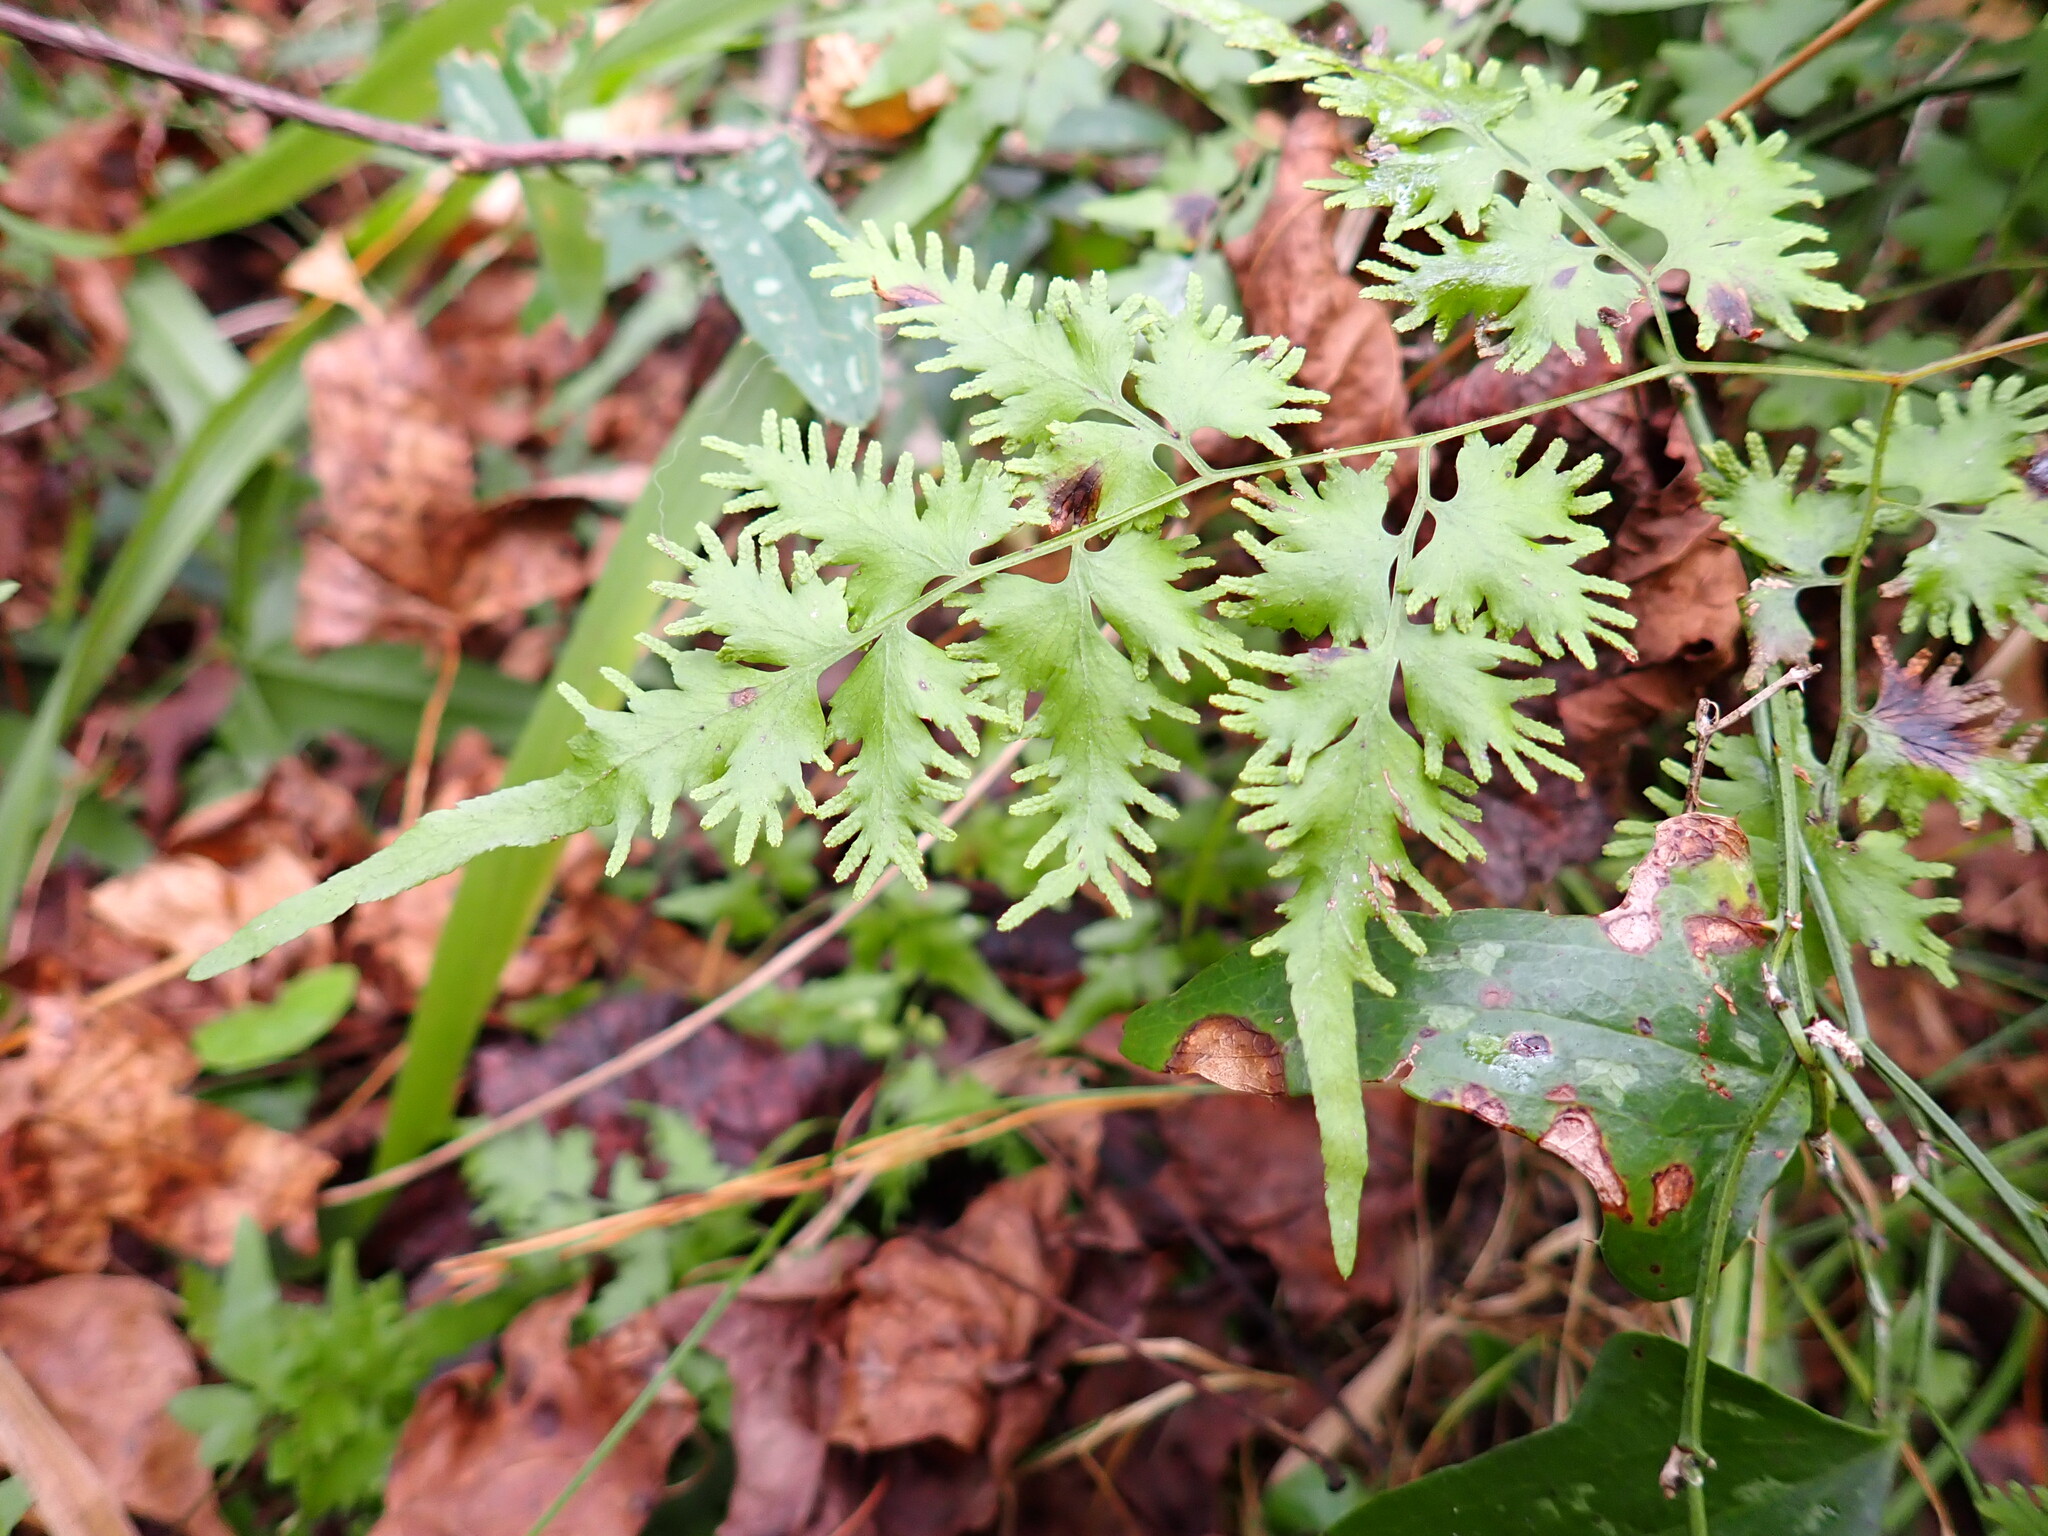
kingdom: Plantae
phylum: Tracheophyta
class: Polypodiopsida
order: Schizaeales
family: Lygodiaceae
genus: Lygodium
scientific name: Lygodium japonicum
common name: Japanese climbing fern
